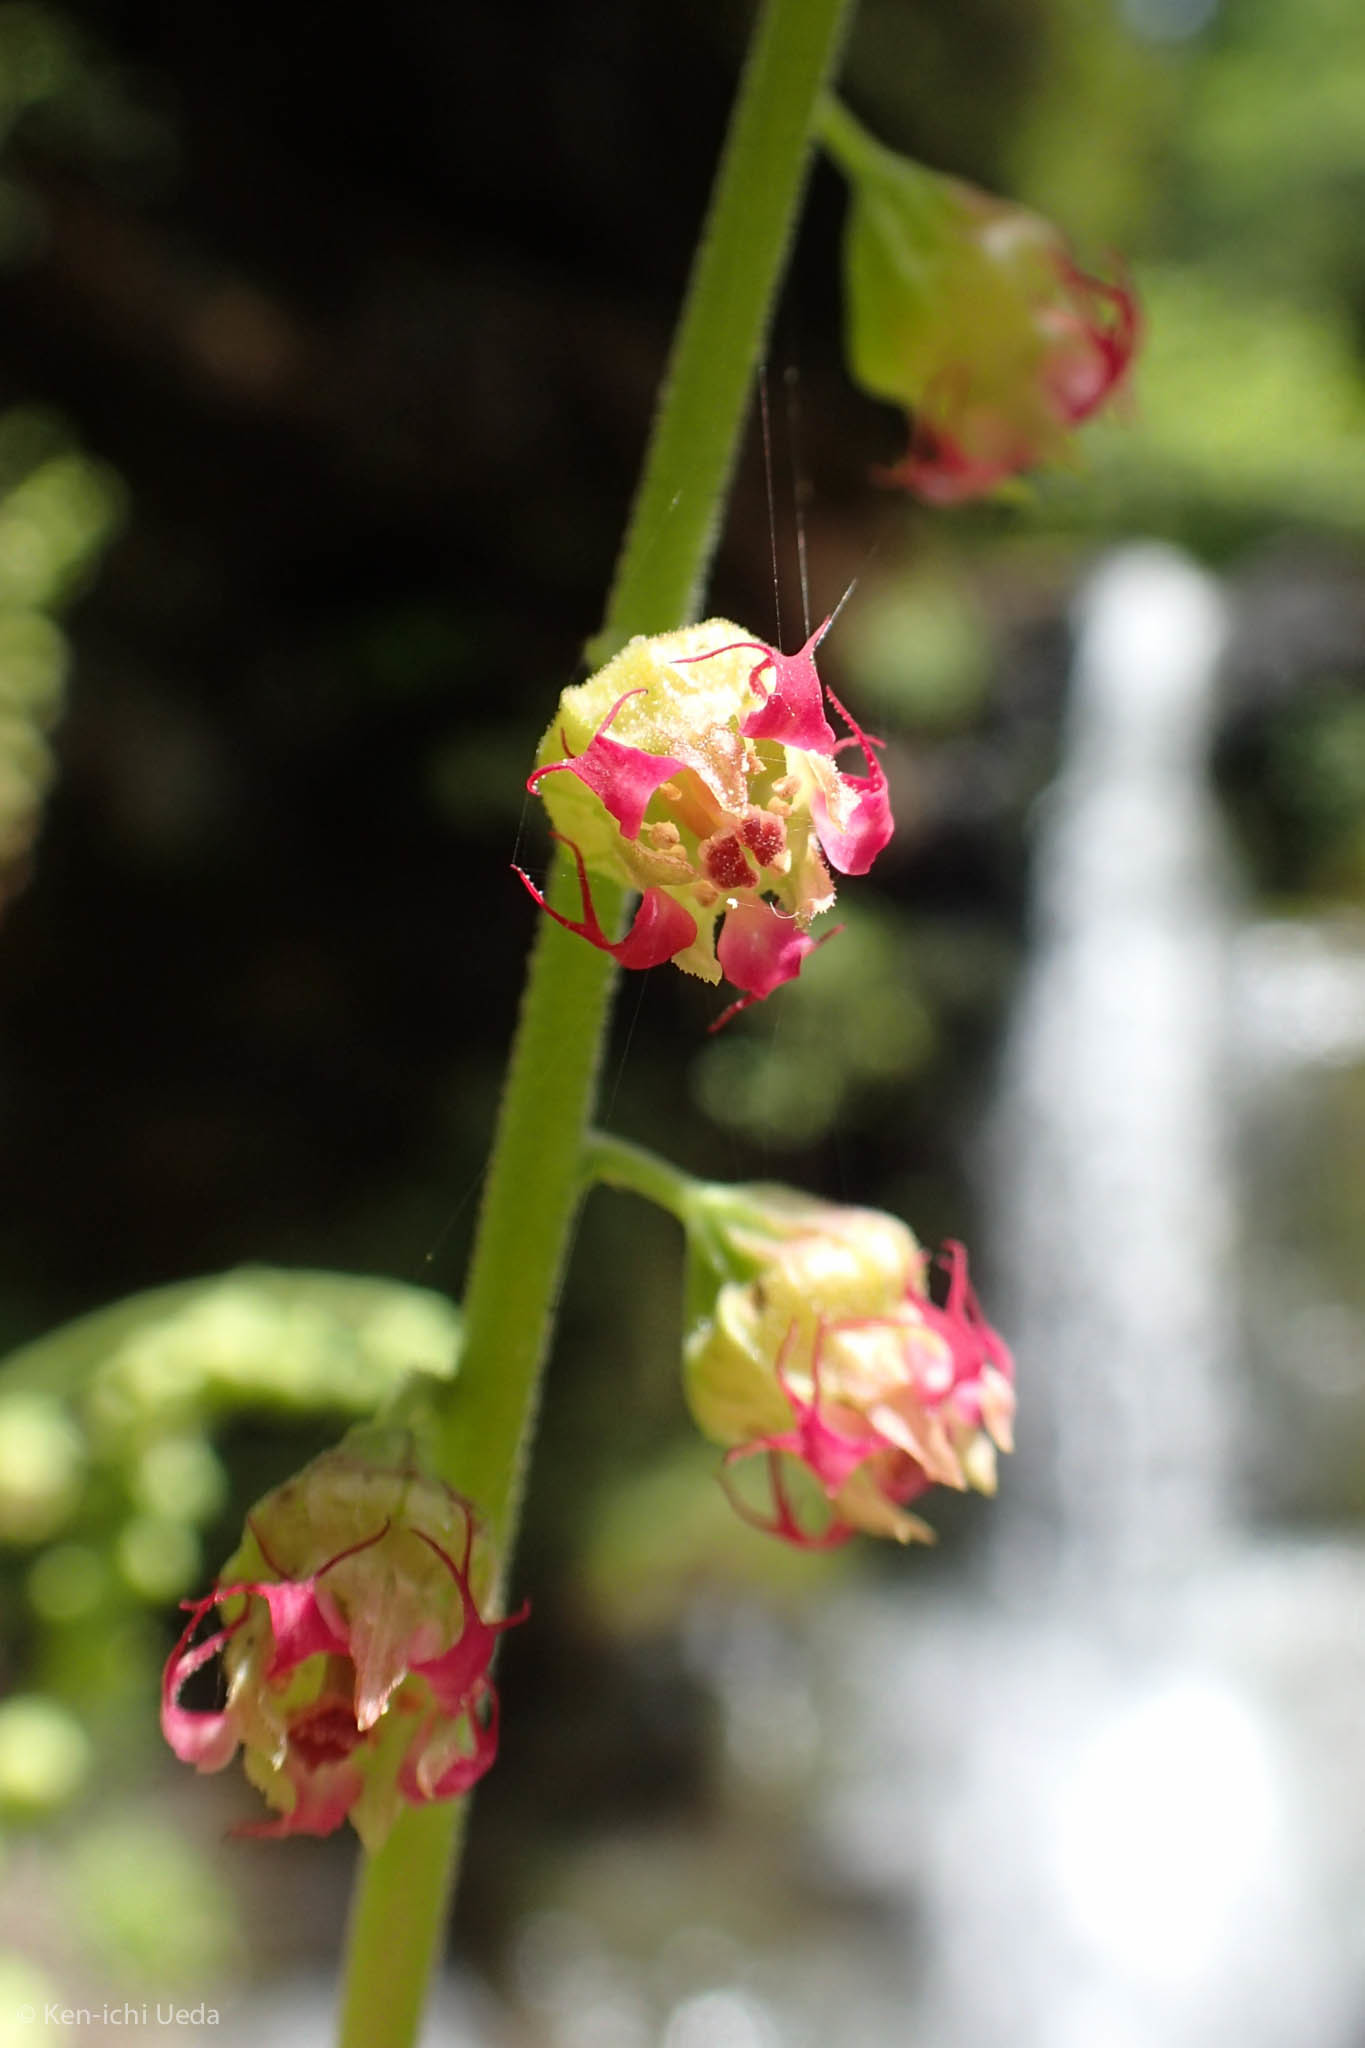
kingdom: Plantae
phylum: Tracheophyta
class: Magnoliopsida
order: Saxifragales
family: Saxifragaceae
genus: Tellima
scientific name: Tellima grandiflora
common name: Fringecups
